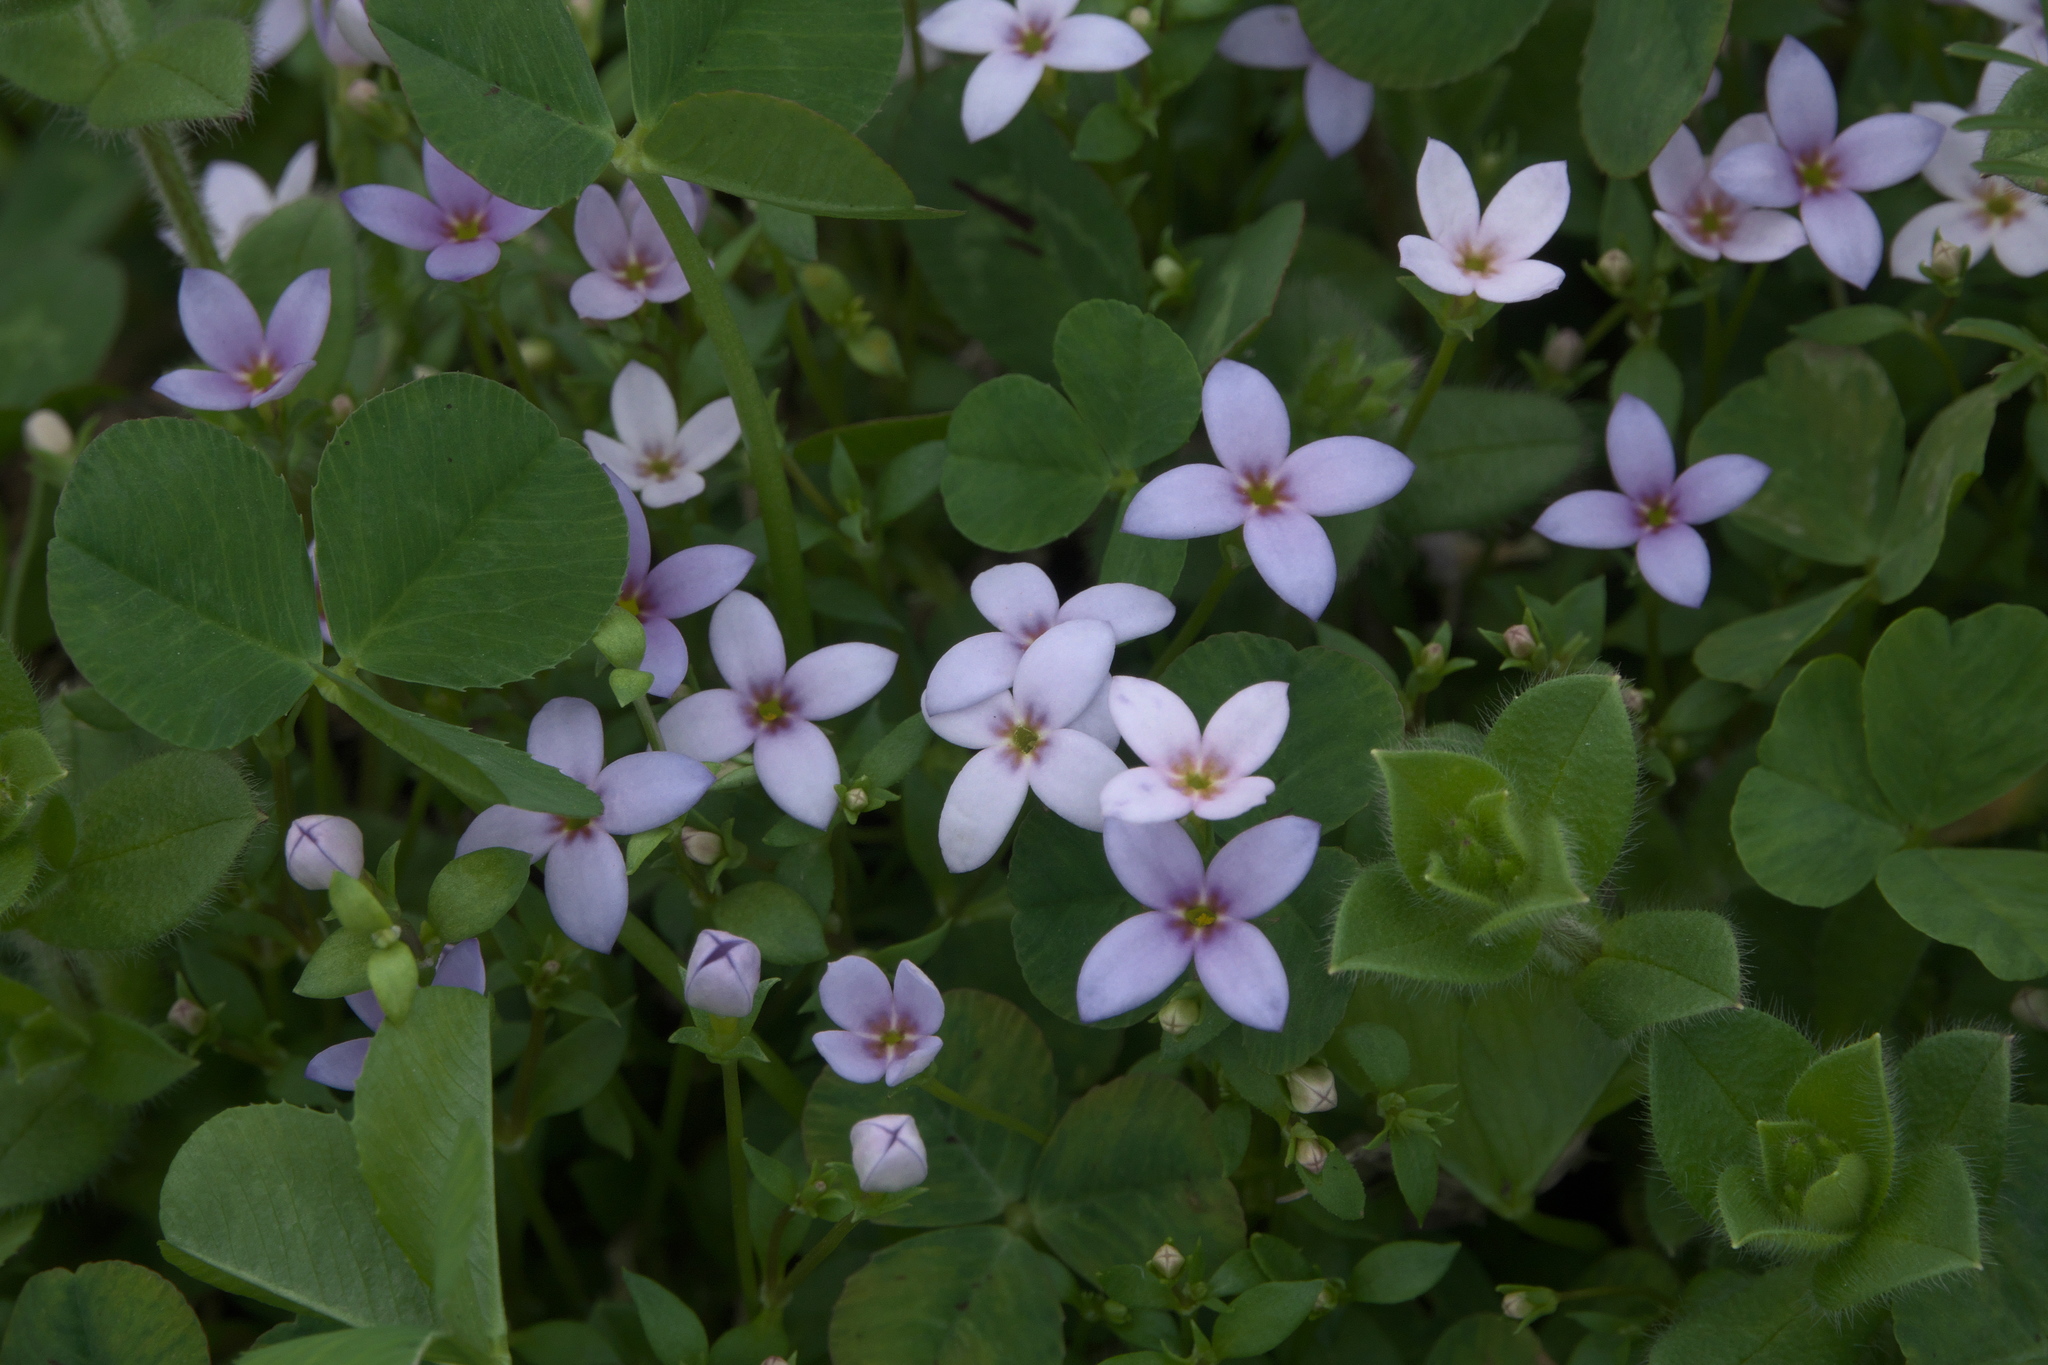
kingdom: Plantae
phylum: Tracheophyta
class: Magnoliopsida
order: Gentianales
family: Rubiaceae
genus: Houstonia
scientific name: Houstonia pusilla
